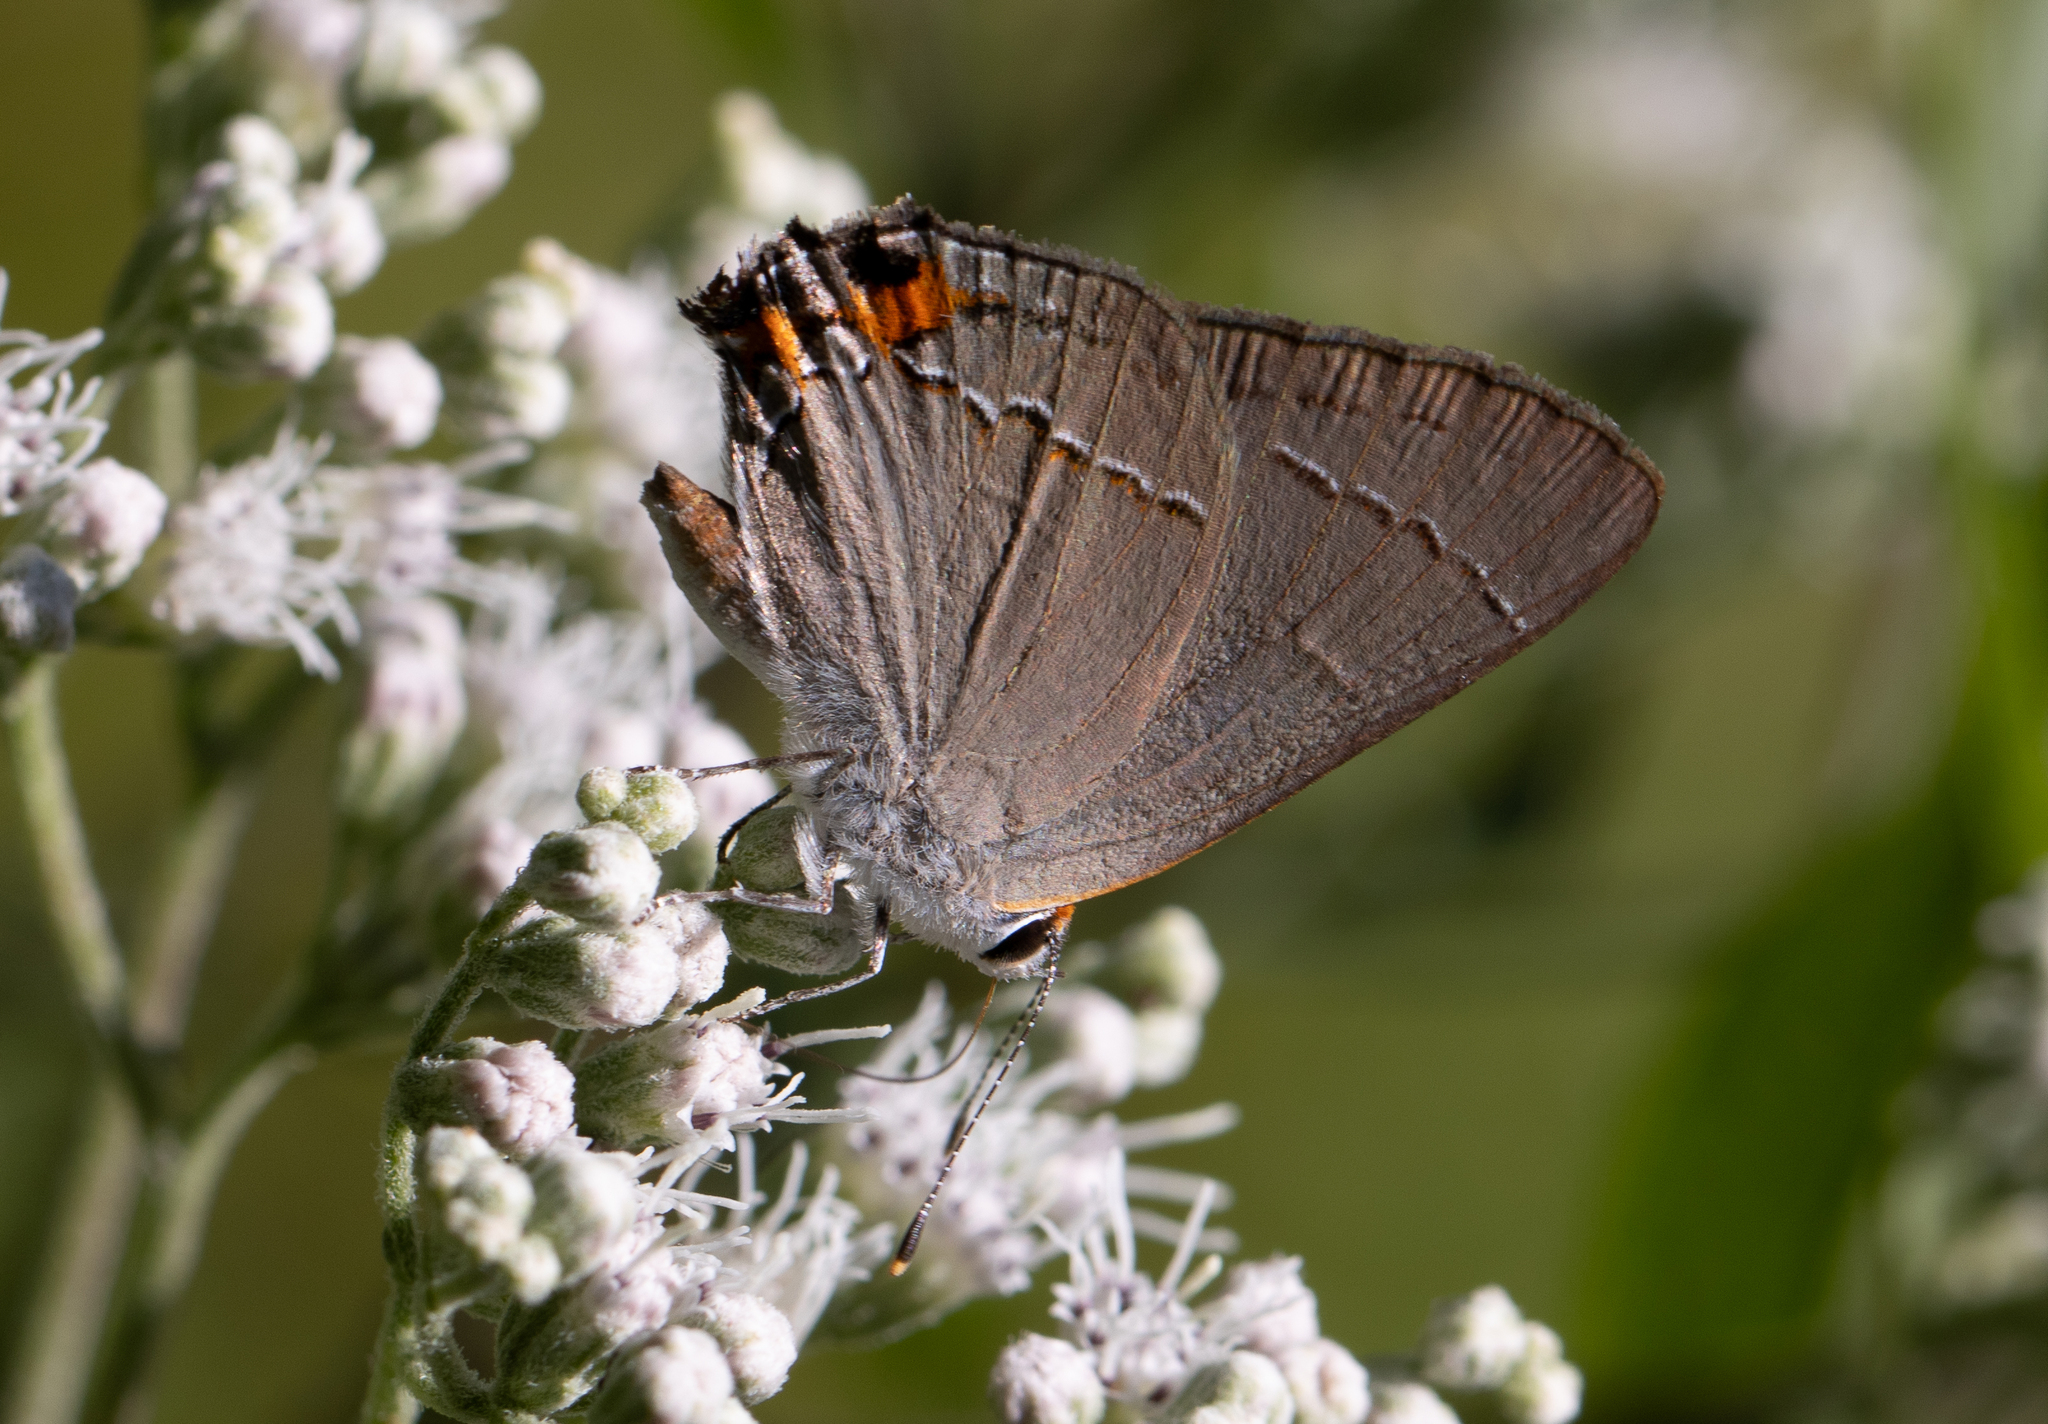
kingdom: Animalia
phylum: Arthropoda
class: Insecta
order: Lepidoptera
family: Lycaenidae
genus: Strymon
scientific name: Strymon melinus
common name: Gray hairstreak
